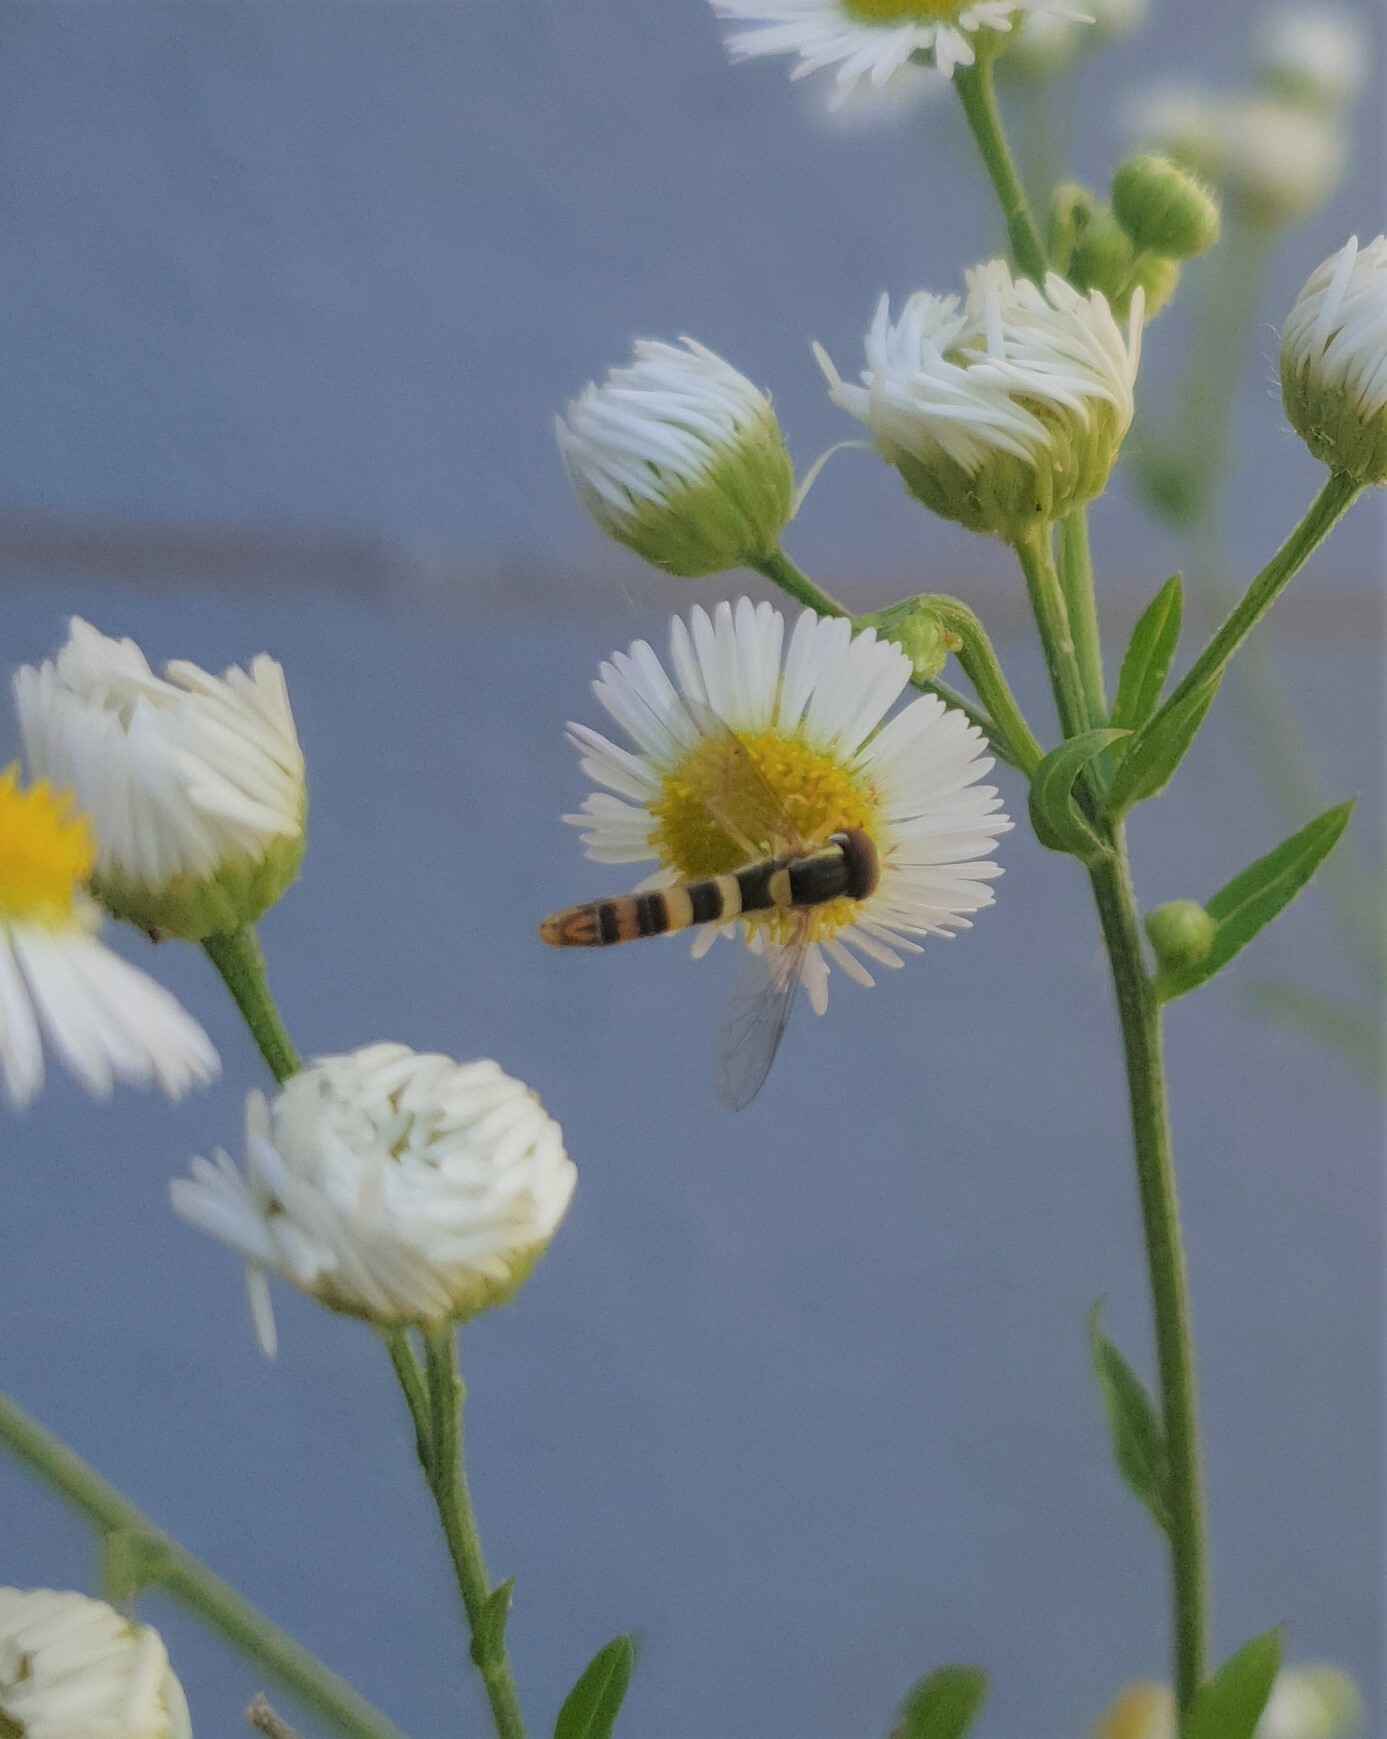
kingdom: Animalia
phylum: Arthropoda
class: Insecta
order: Diptera
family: Syrphidae
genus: Sphaerophoria
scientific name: Sphaerophoria scripta
